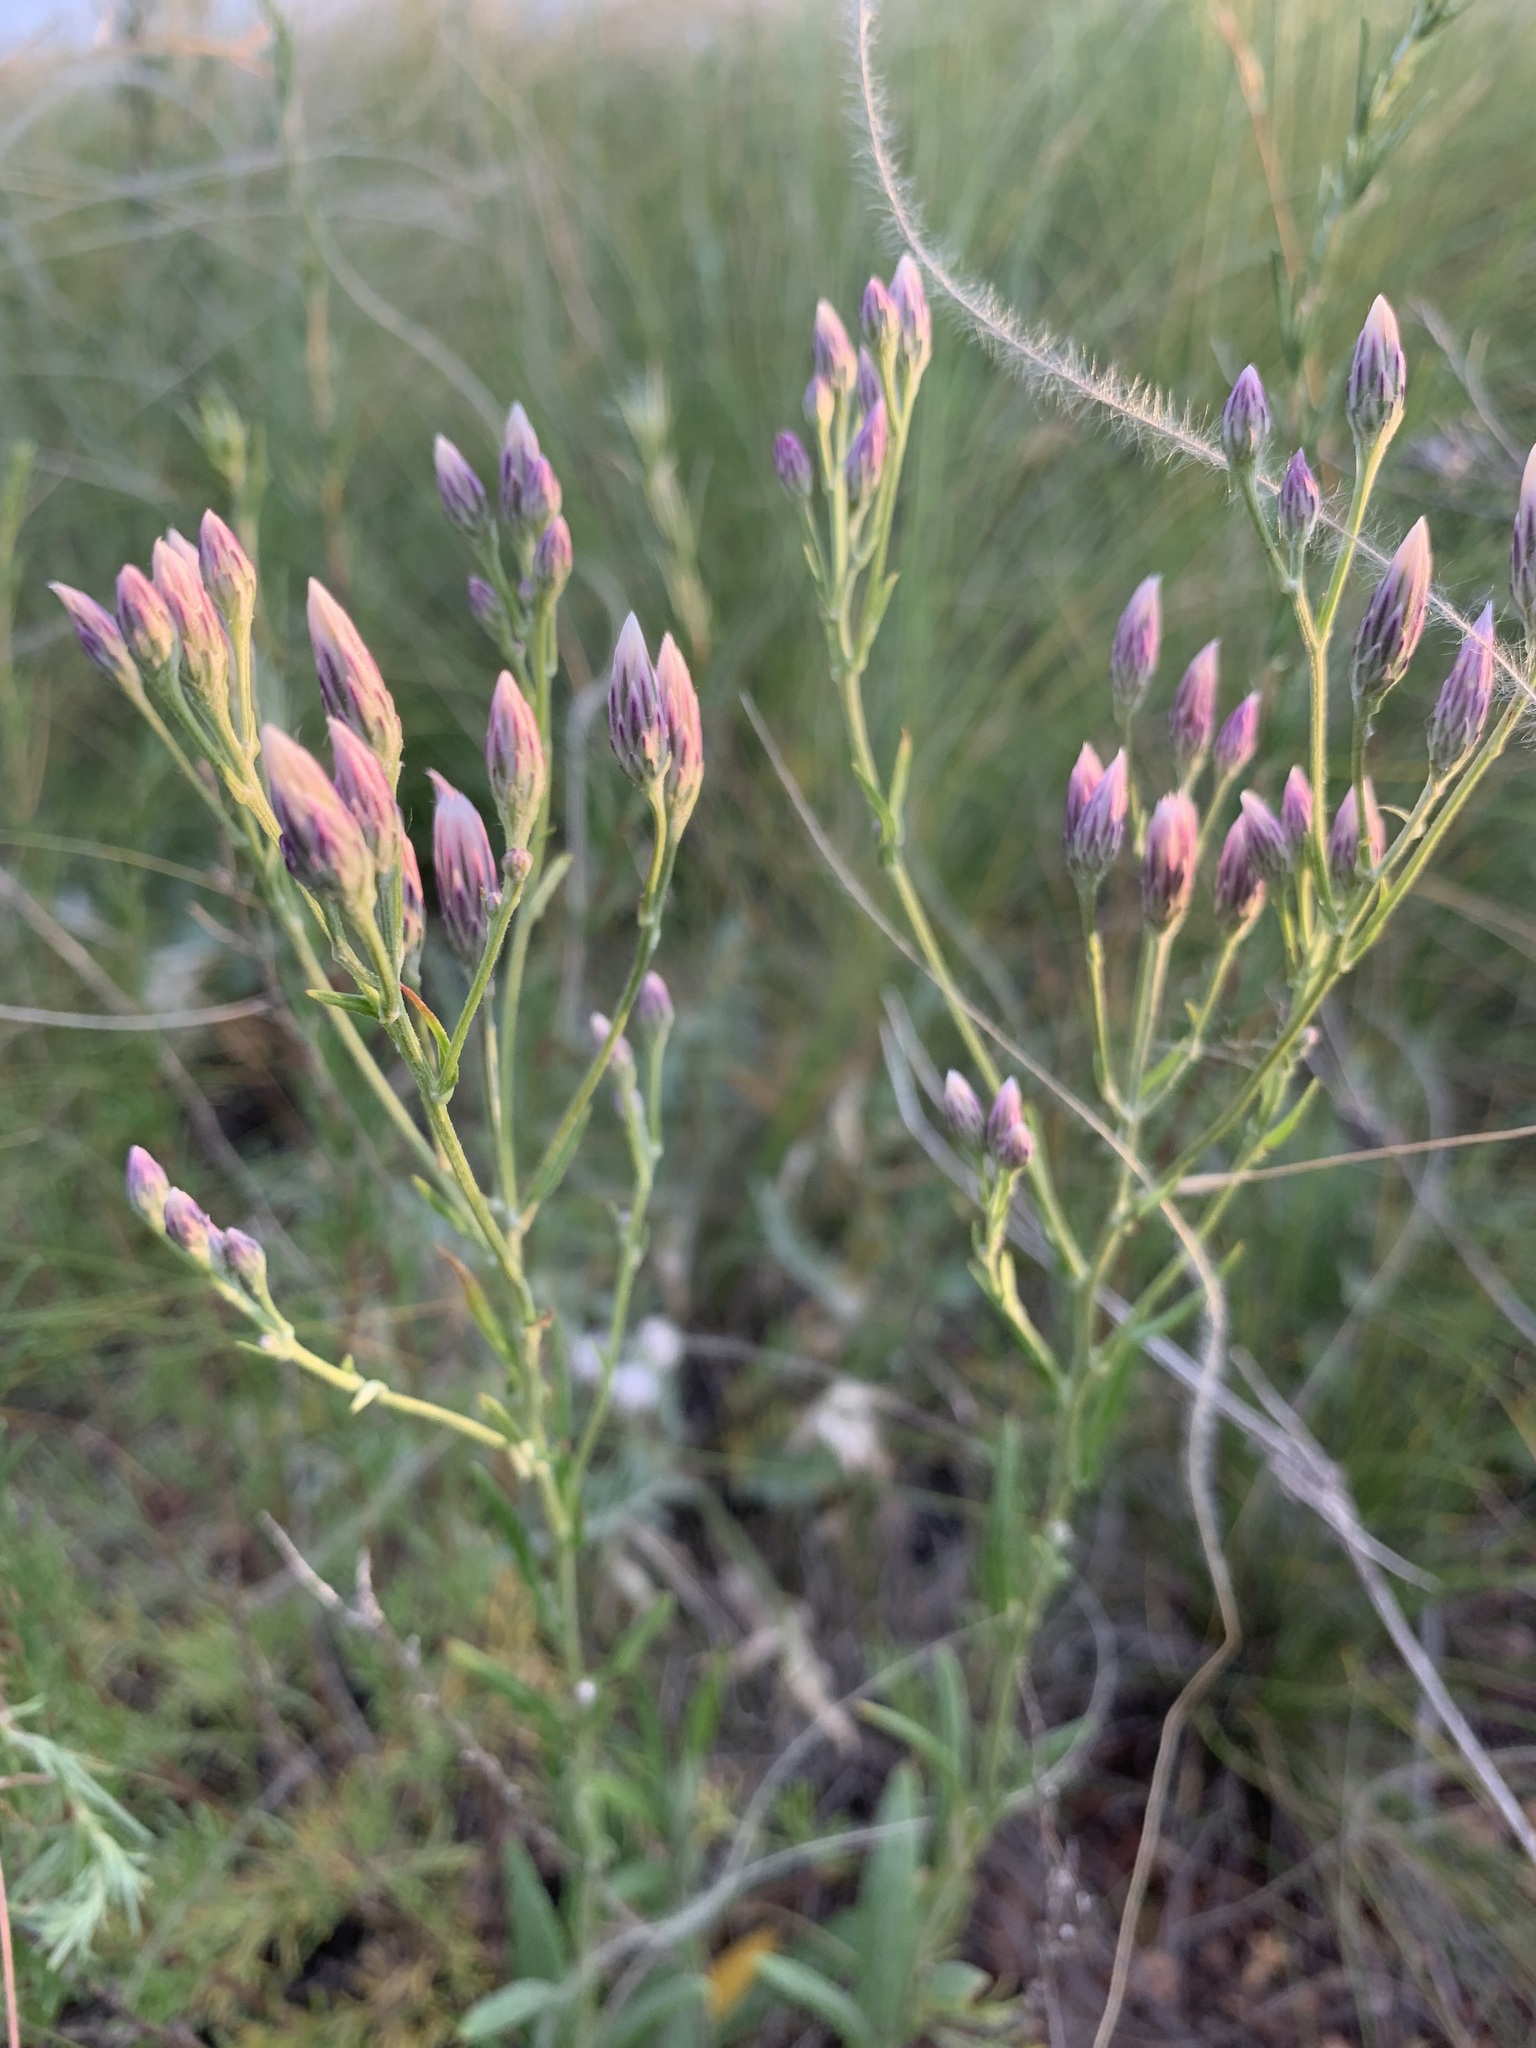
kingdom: Plantae
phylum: Tracheophyta
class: Magnoliopsida
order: Asterales
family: Asteraceae
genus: Jurinea
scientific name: Jurinea multiflora
